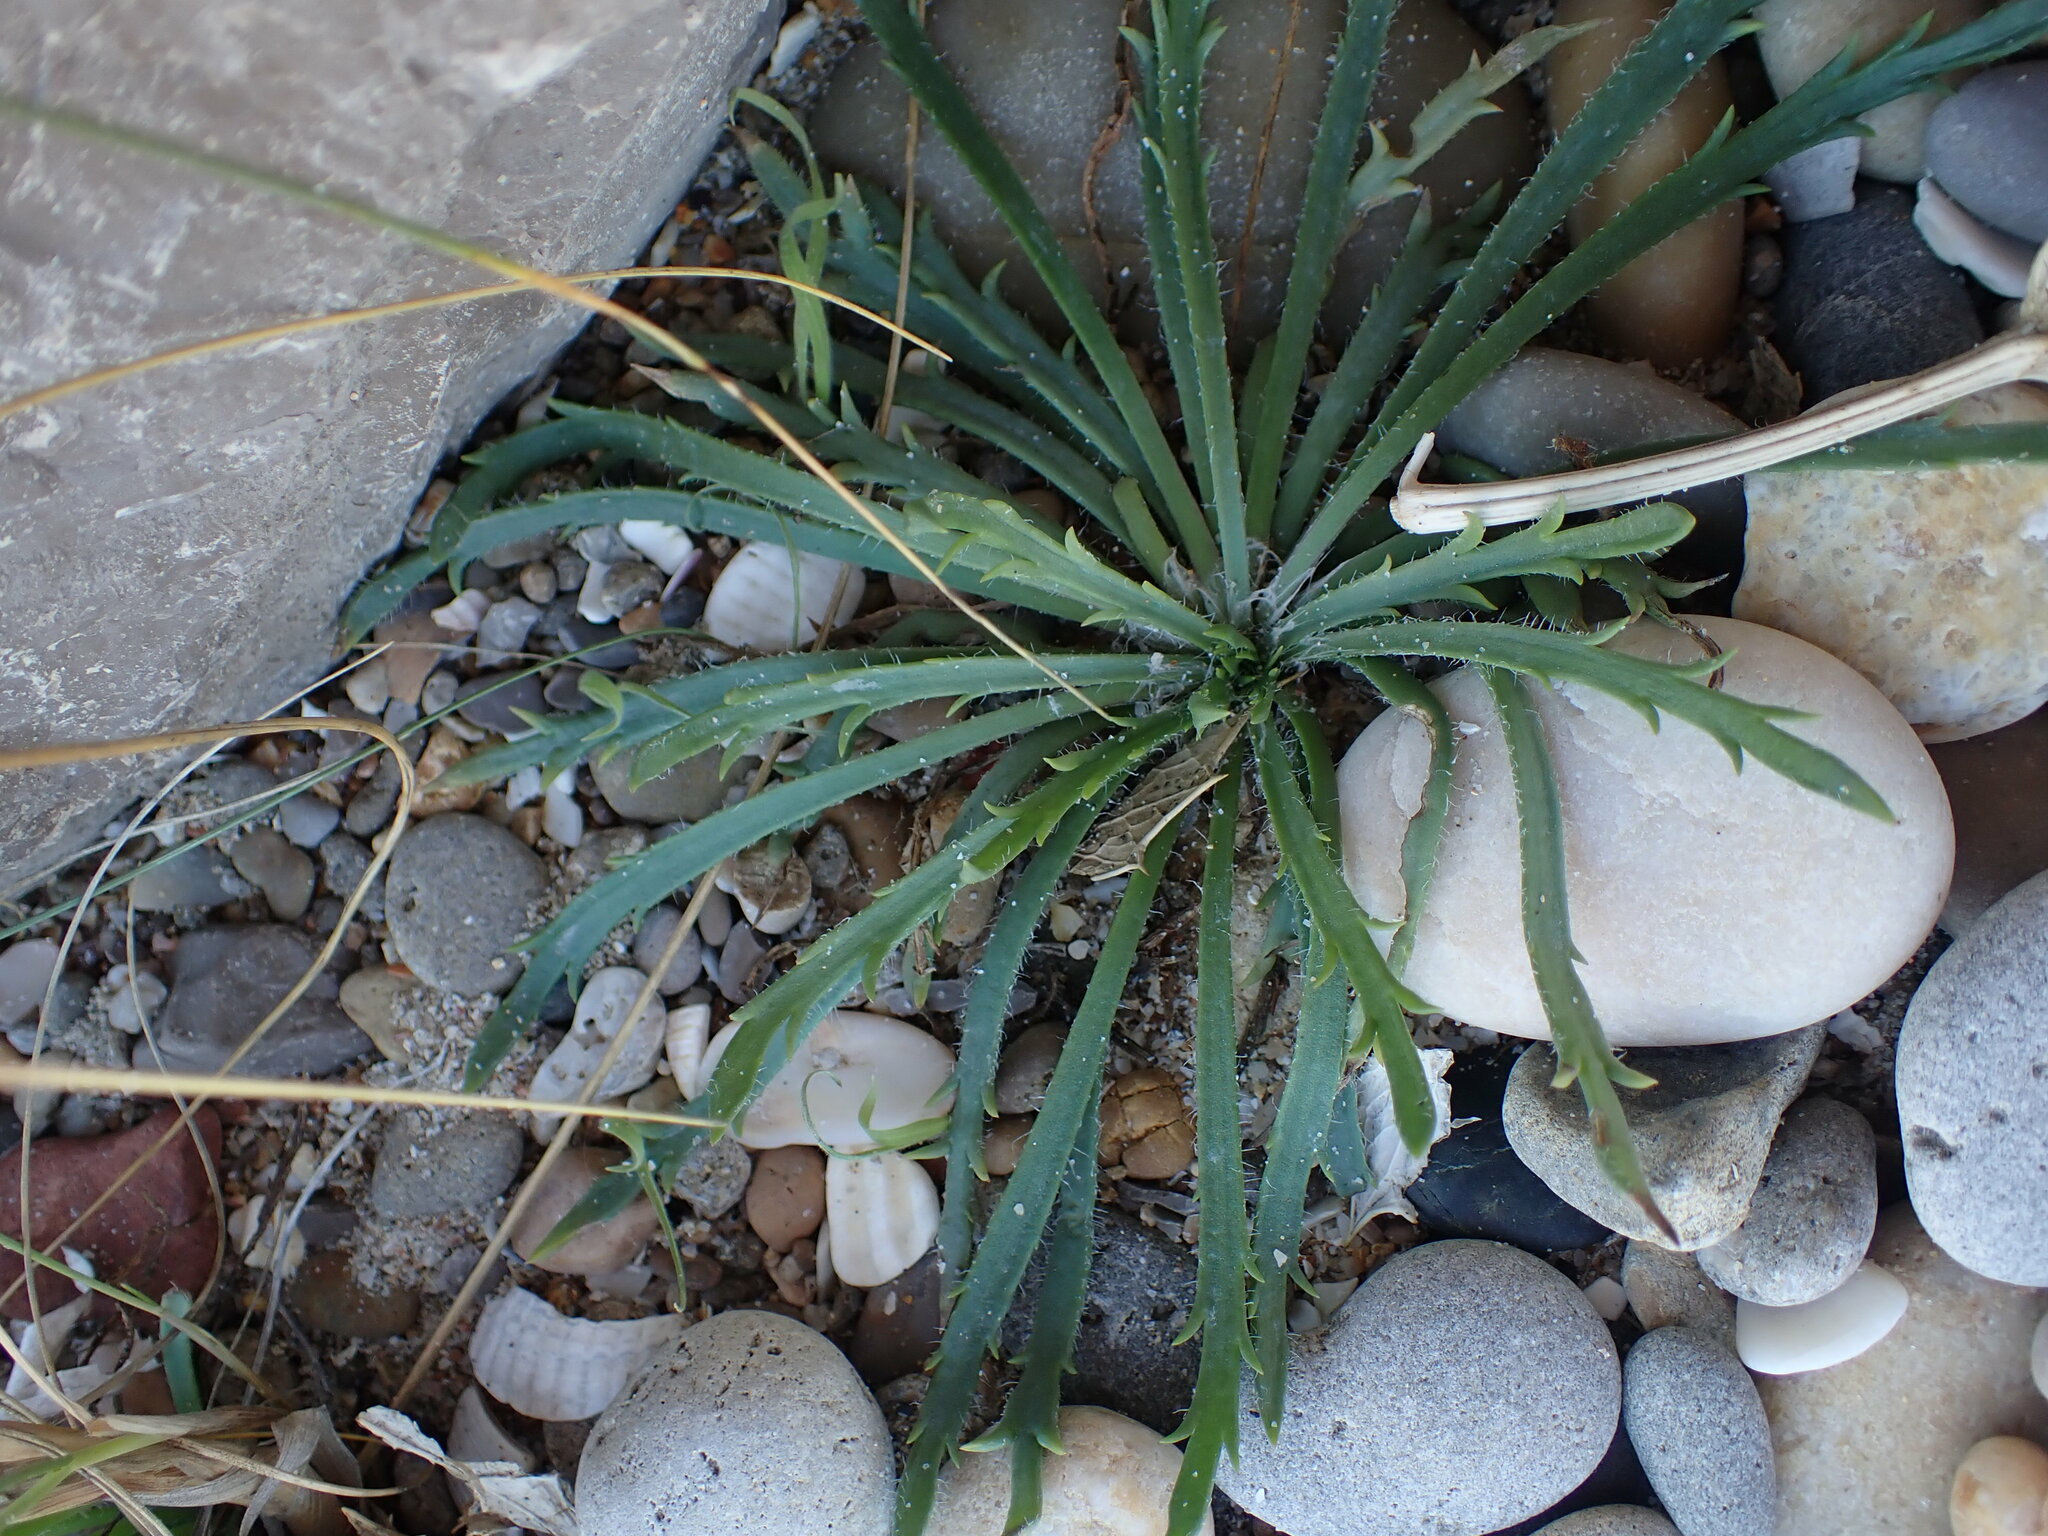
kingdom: Plantae
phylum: Tracheophyta
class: Magnoliopsida
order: Lamiales
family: Plantaginaceae
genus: Plantago
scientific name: Plantago coronopus
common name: Buck's-horn plantain
